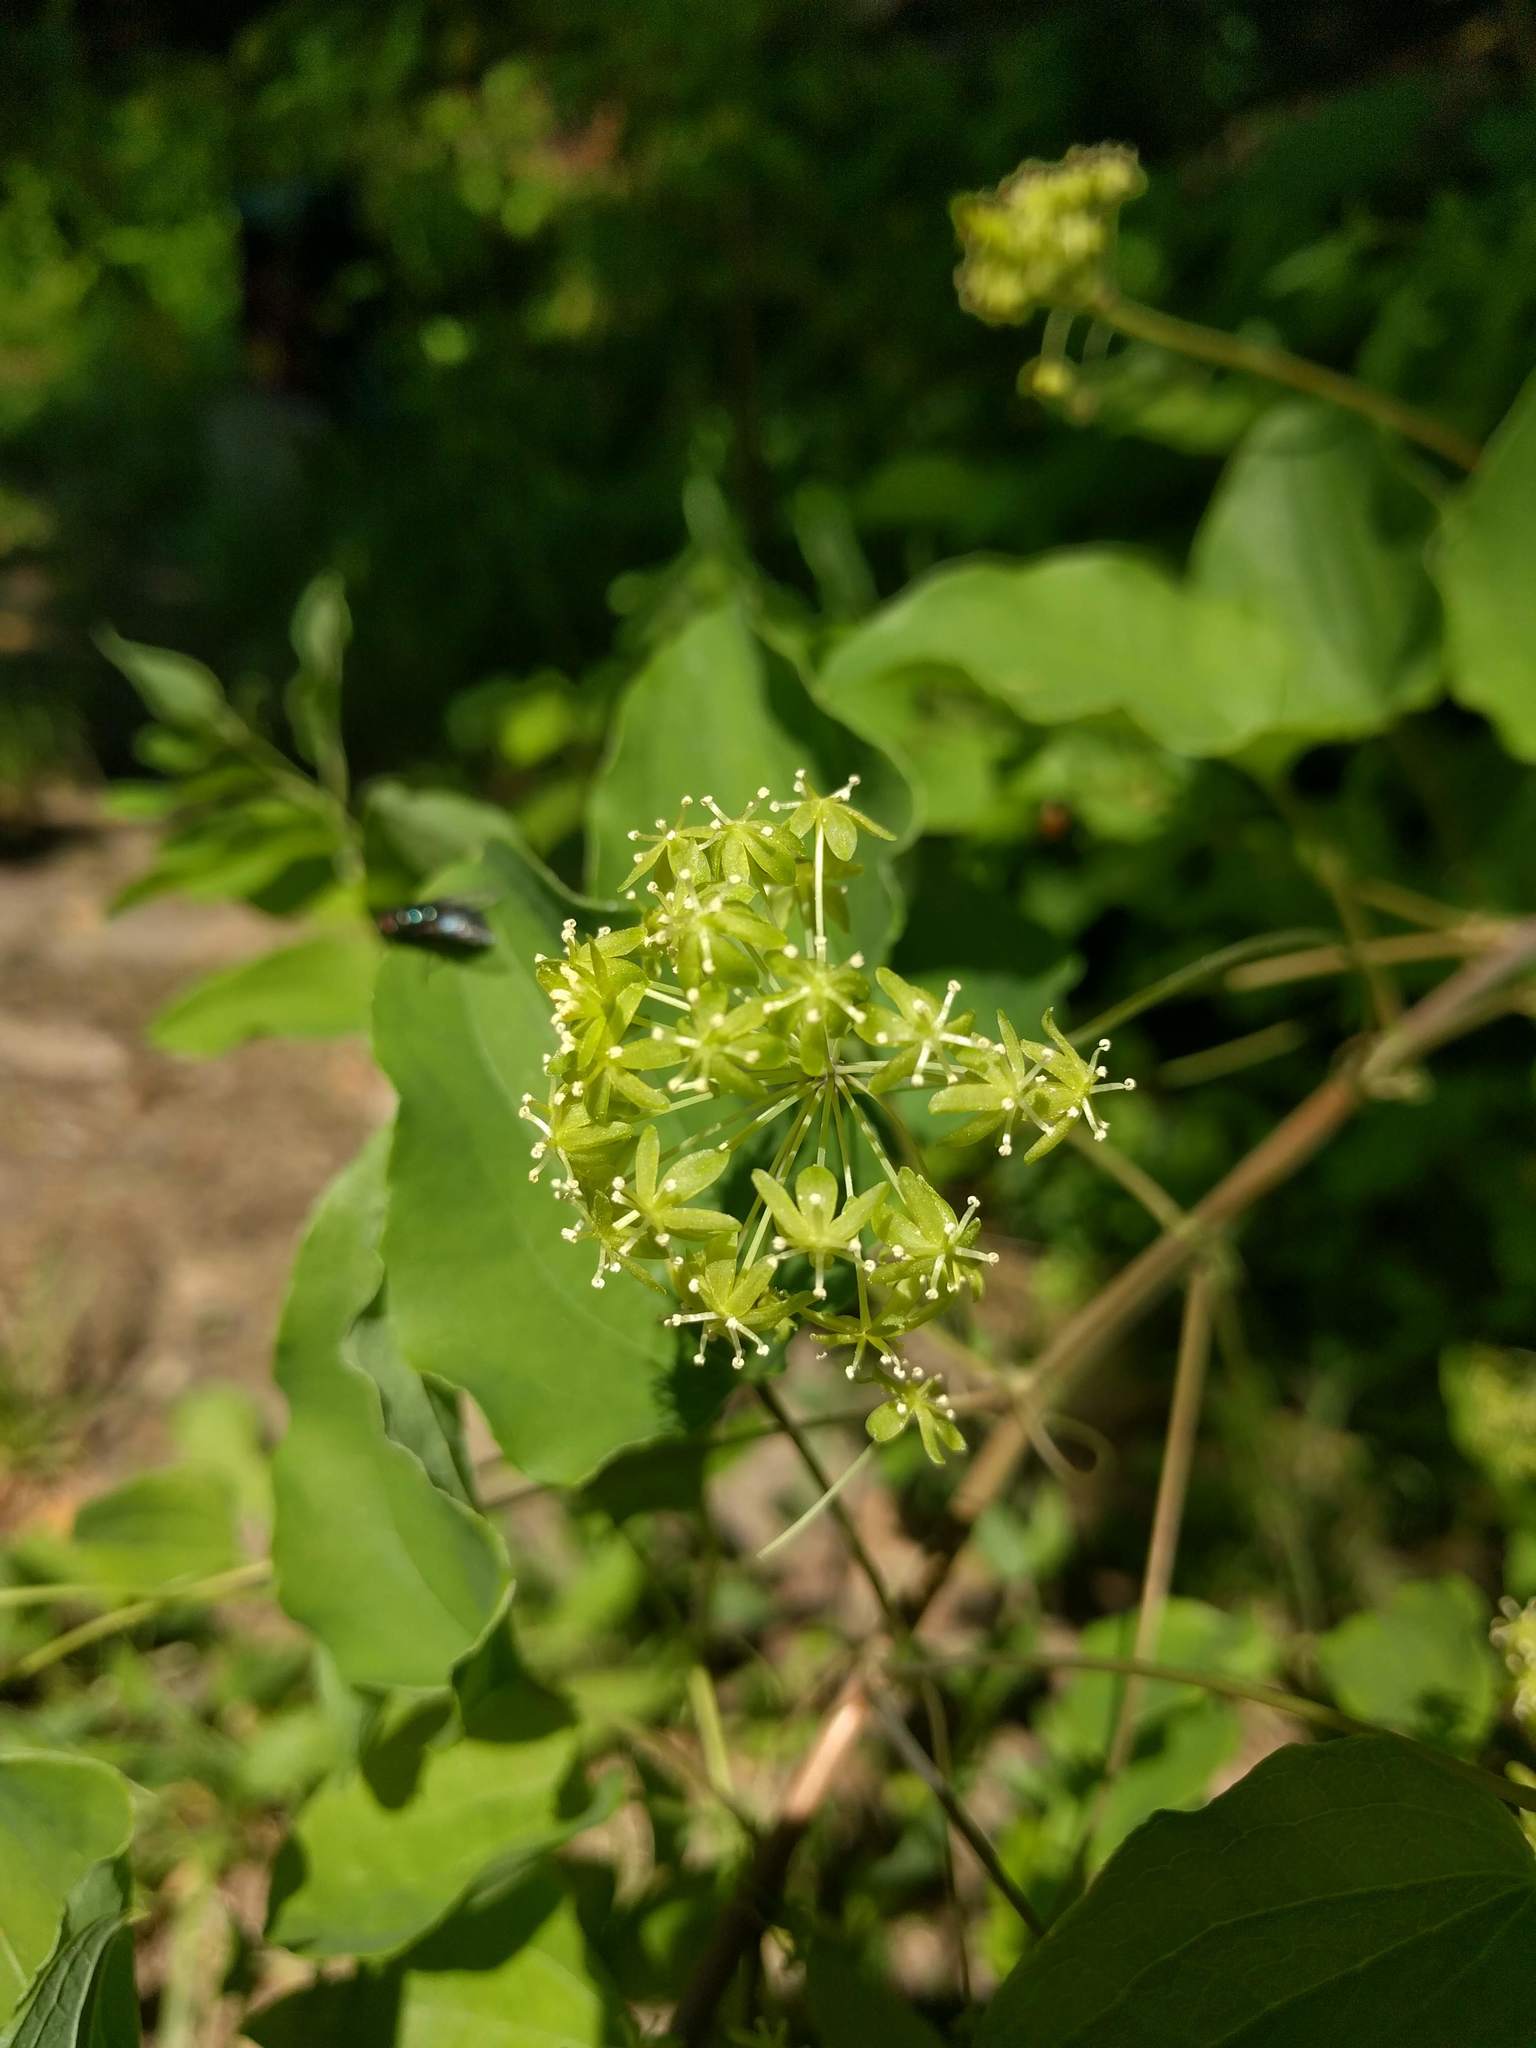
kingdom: Plantae
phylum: Tracheophyta
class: Liliopsida
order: Liliales
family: Smilacaceae
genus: Smilax
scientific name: Smilax herbacea
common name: Jacob's-ladder
